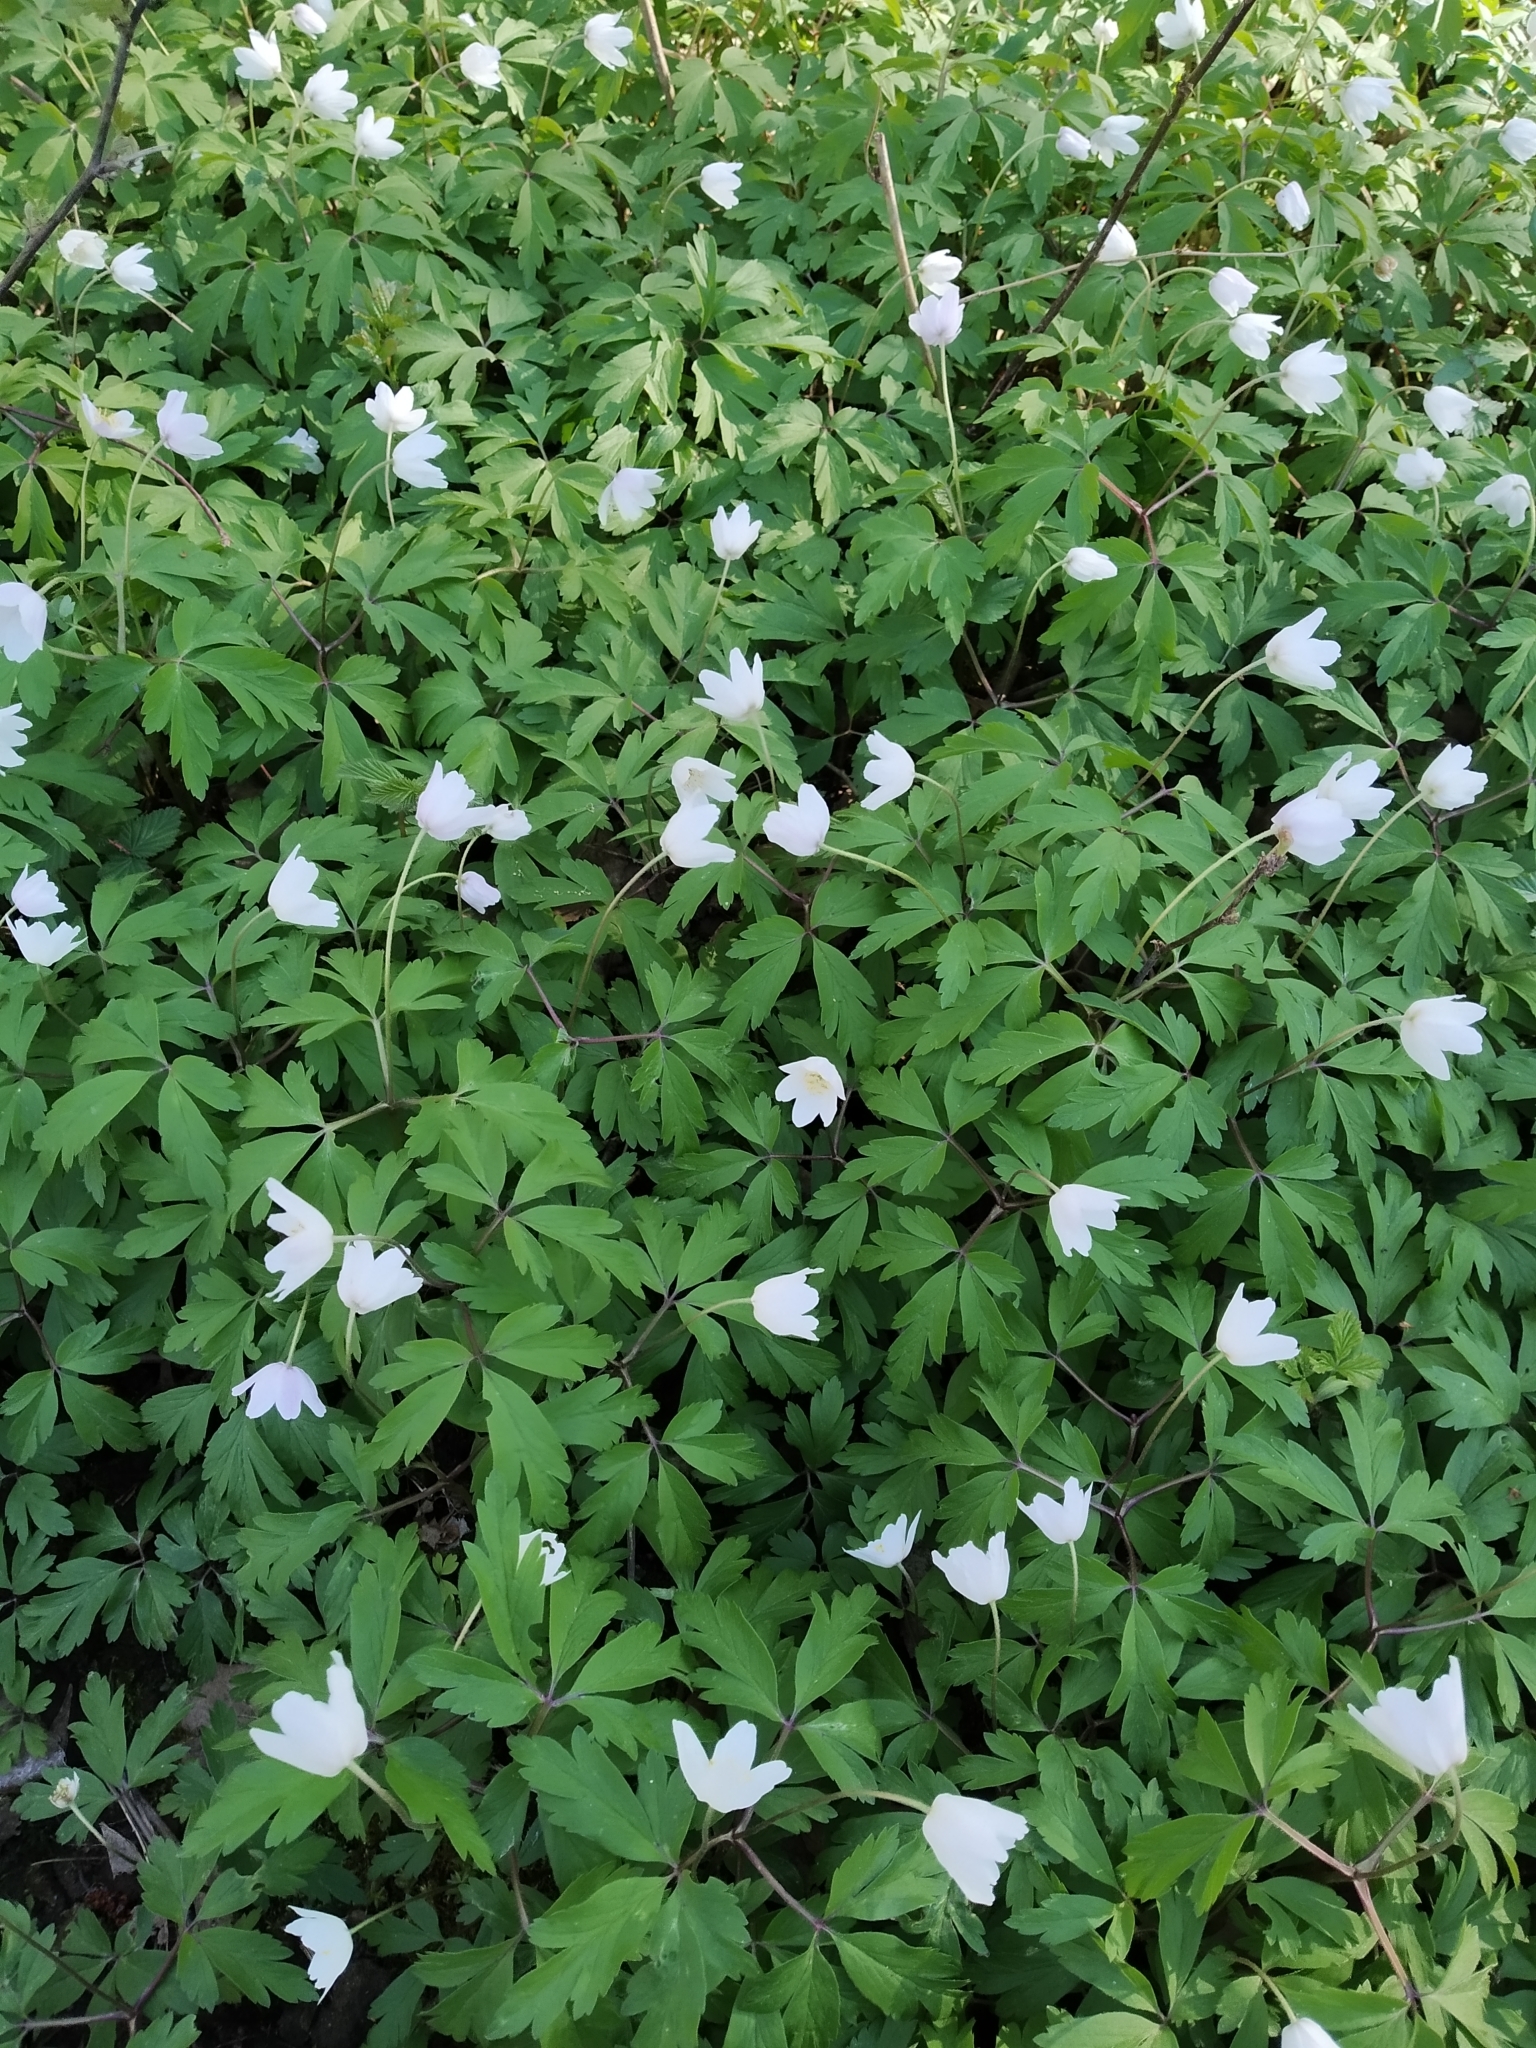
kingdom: Plantae
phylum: Tracheophyta
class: Magnoliopsida
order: Ranunculales
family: Ranunculaceae
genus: Anemone
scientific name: Anemone nemorosa
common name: Wood anemone
